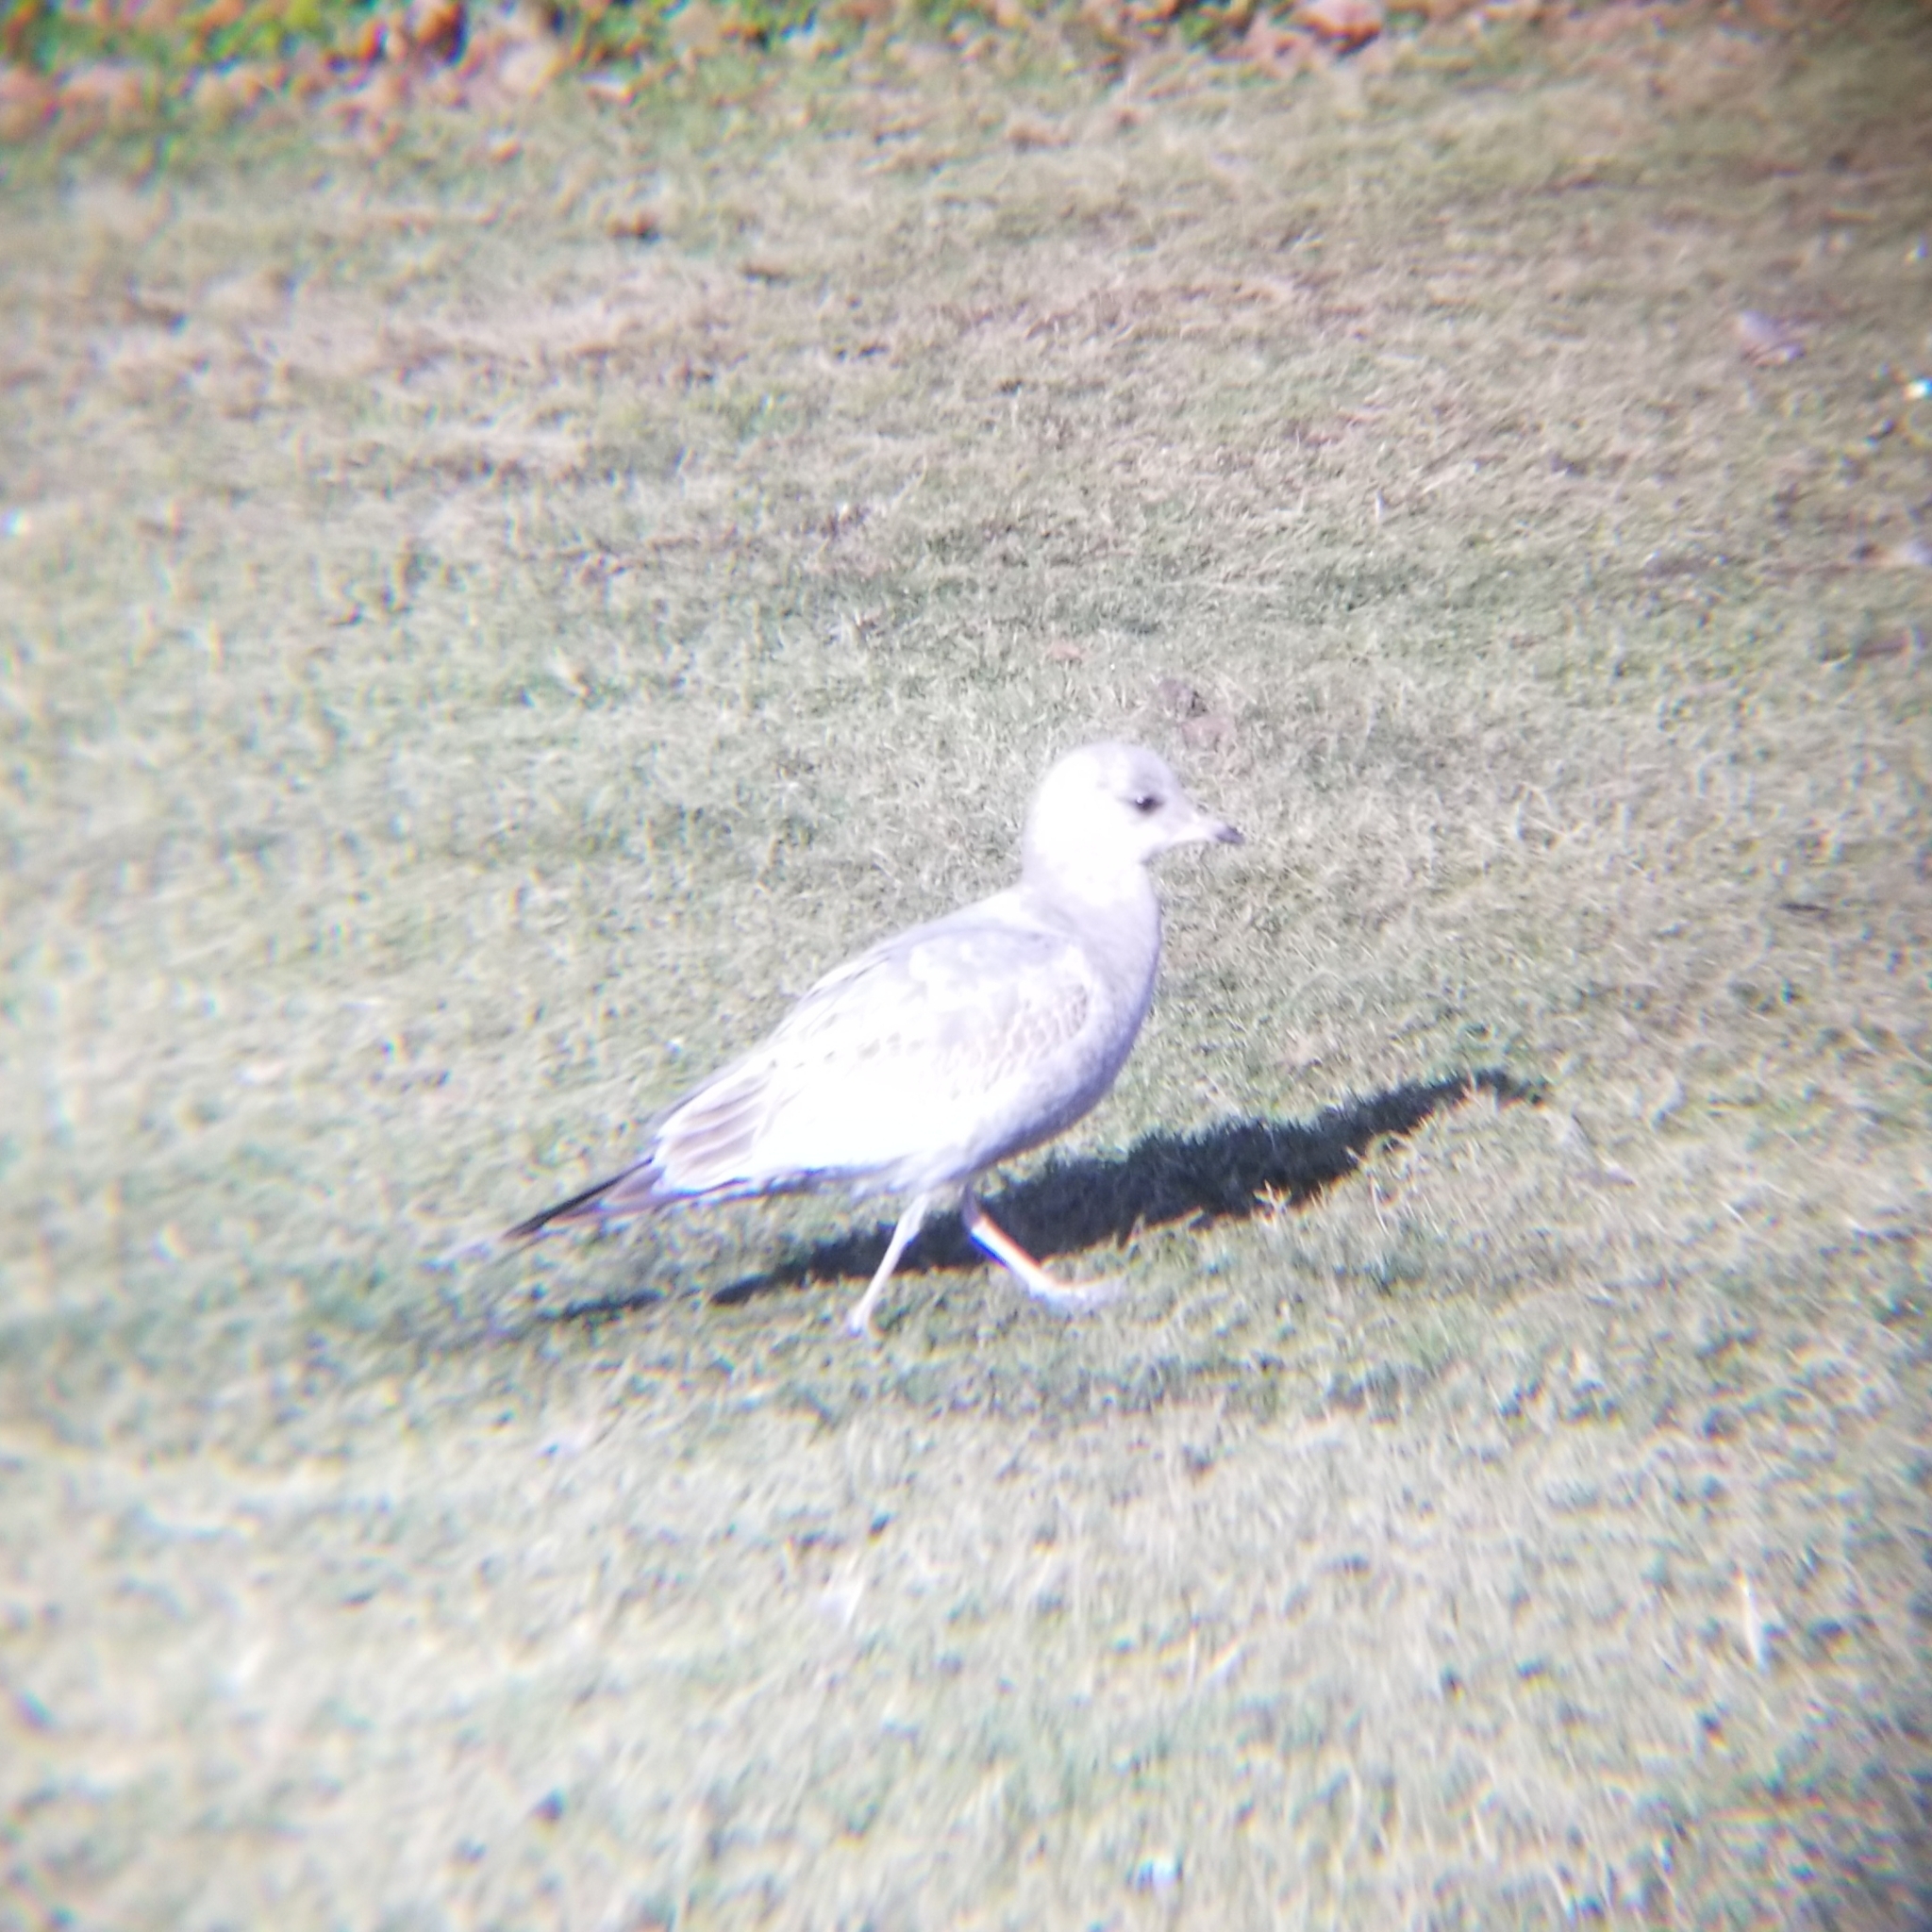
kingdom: Animalia
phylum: Chordata
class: Aves
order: Charadriiformes
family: Laridae
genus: Larus
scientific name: Larus brachyrhynchus
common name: Short-billed gull
